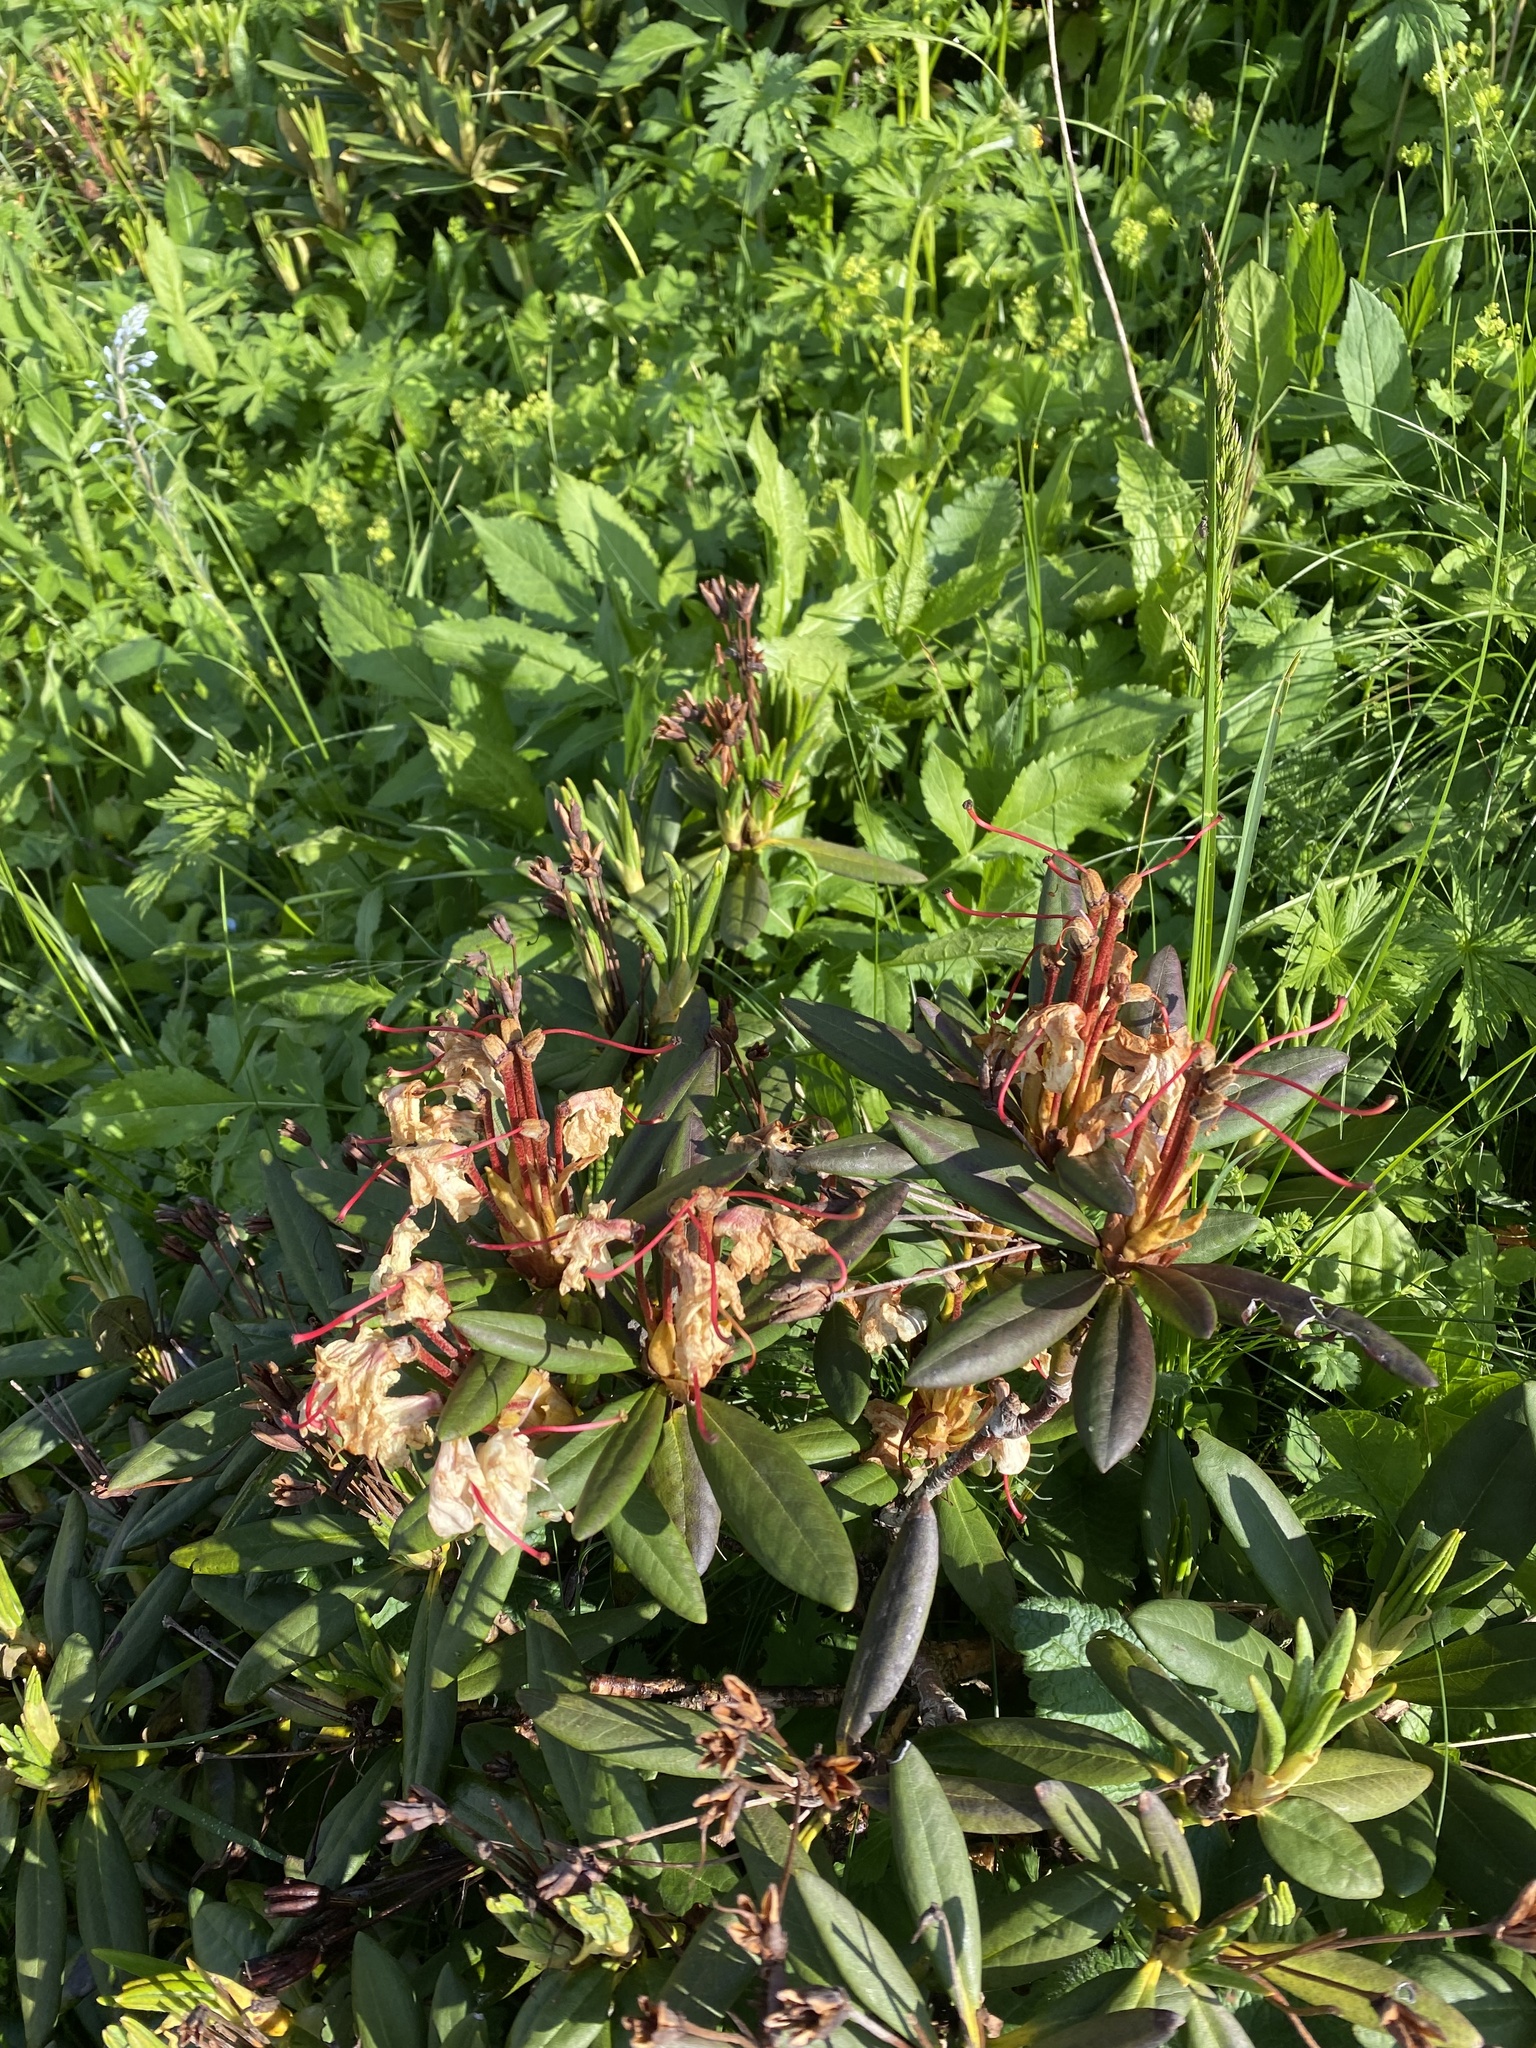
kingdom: Plantae
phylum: Tracheophyta
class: Magnoliopsida
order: Ericales
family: Ericaceae
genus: Rhododendron
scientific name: Rhododendron caucasicum
